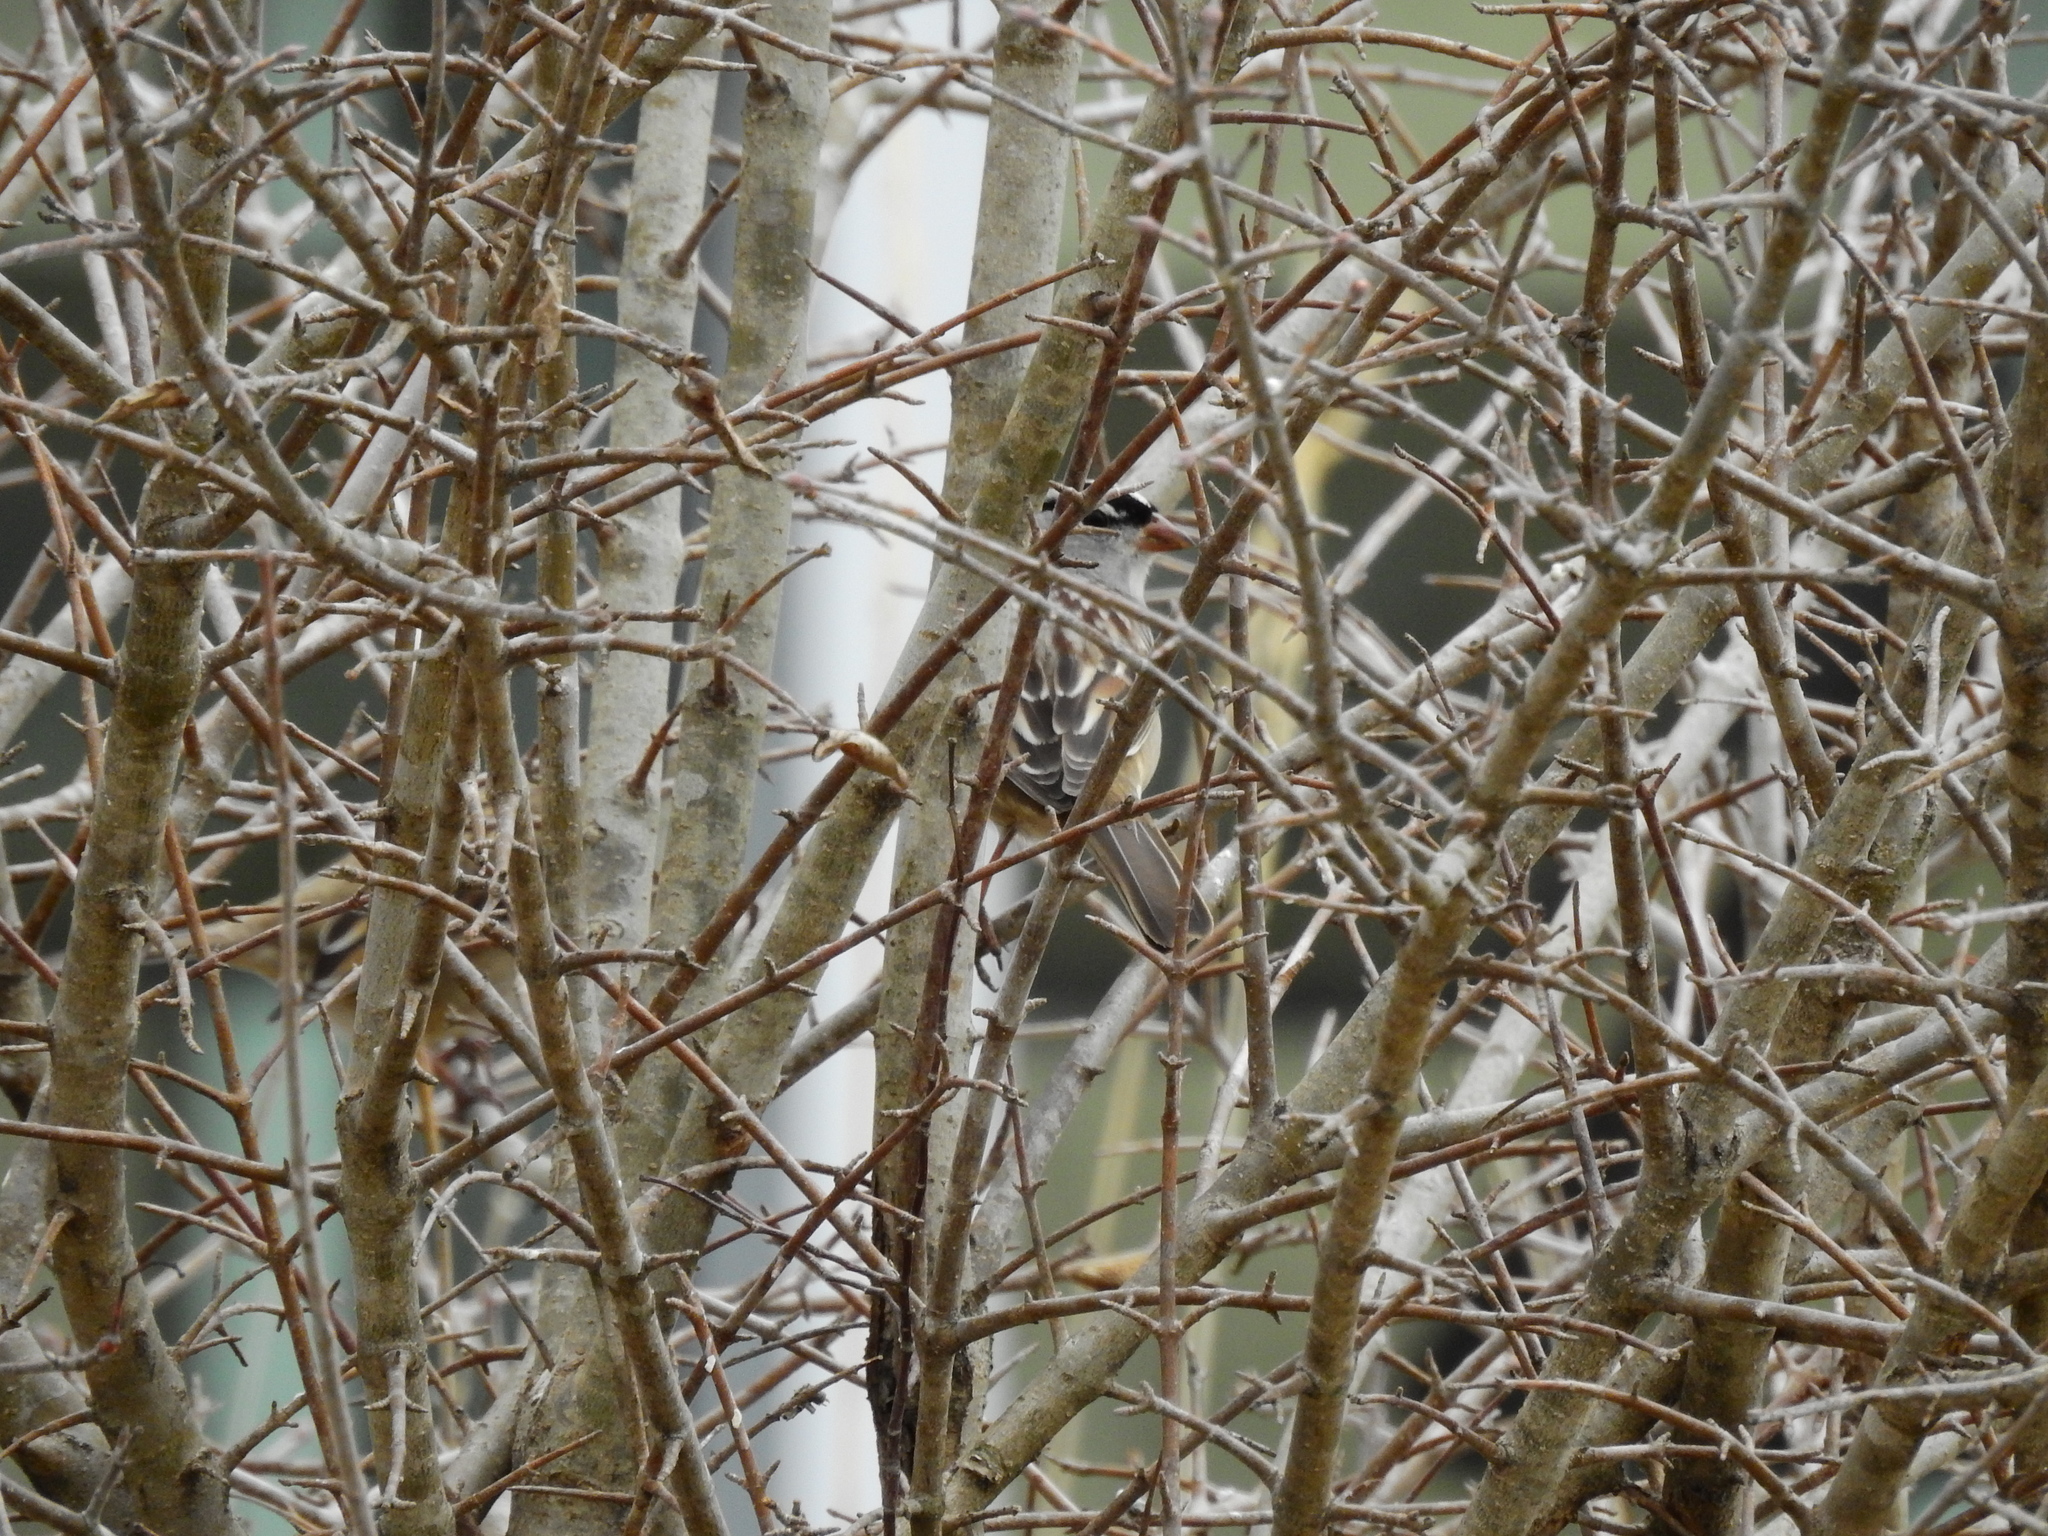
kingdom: Animalia
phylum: Chordata
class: Aves
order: Passeriformes
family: Passerellidae
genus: Zonotrichia
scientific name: Zonotrichia leucophrys
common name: White-crowned sparrow
